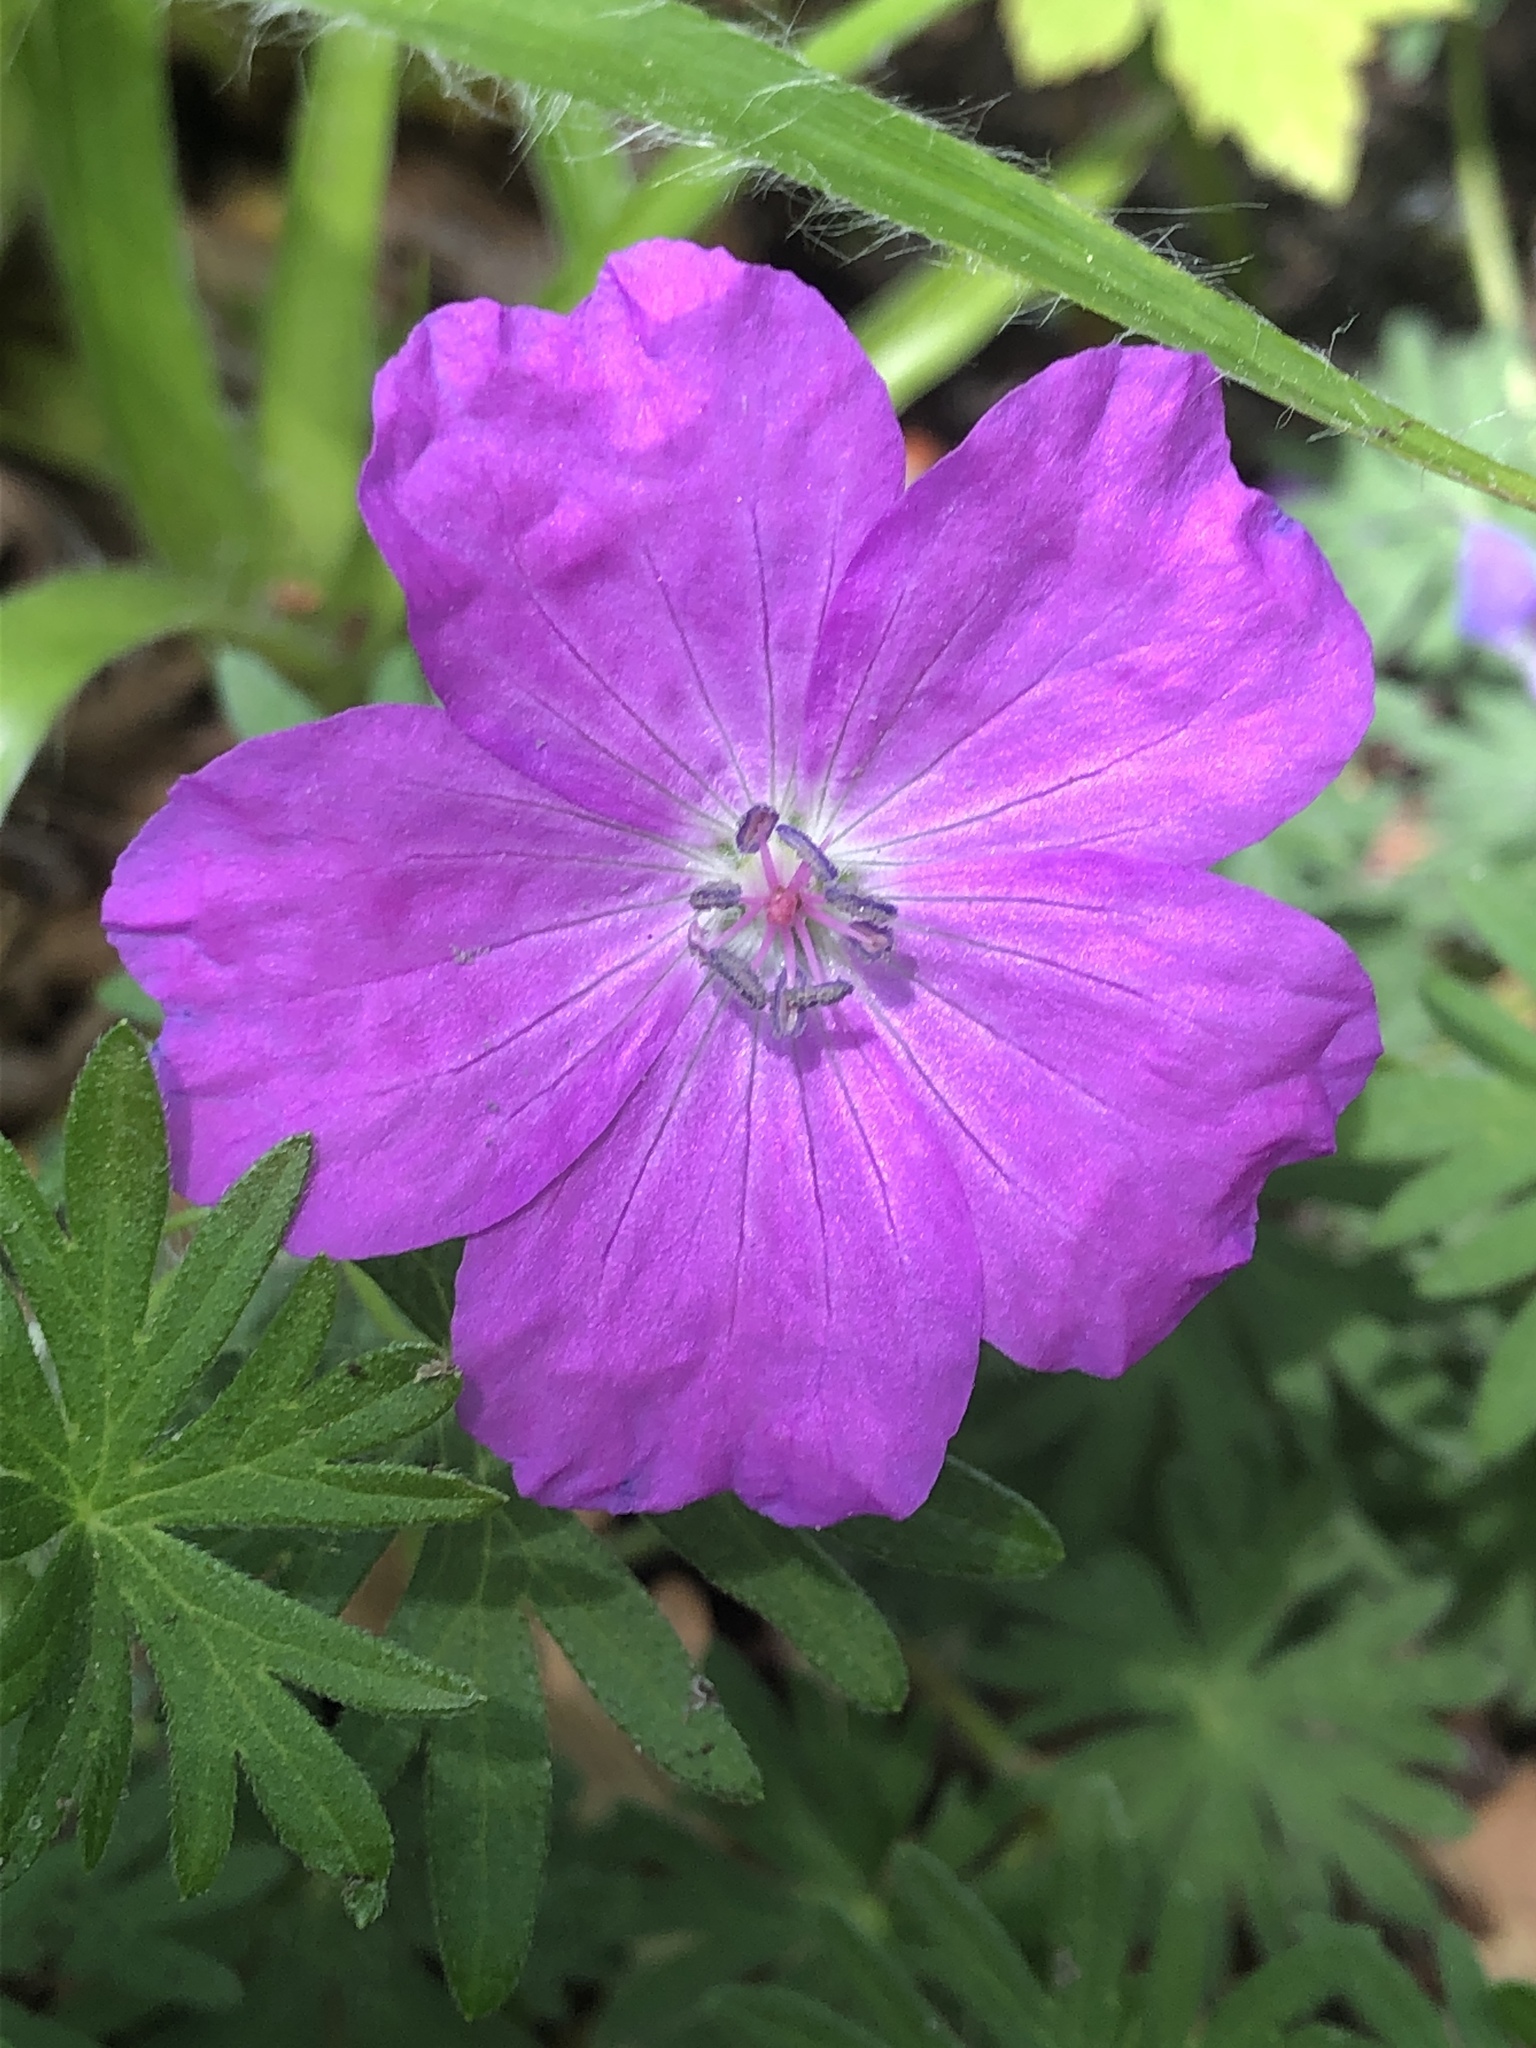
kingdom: Plantae
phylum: Tracheophyta
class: Magnoliopsida
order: Geraniales
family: Geraniaceae
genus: Geranium
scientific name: Geranium sanguineum
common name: Bloody crane's-bill
